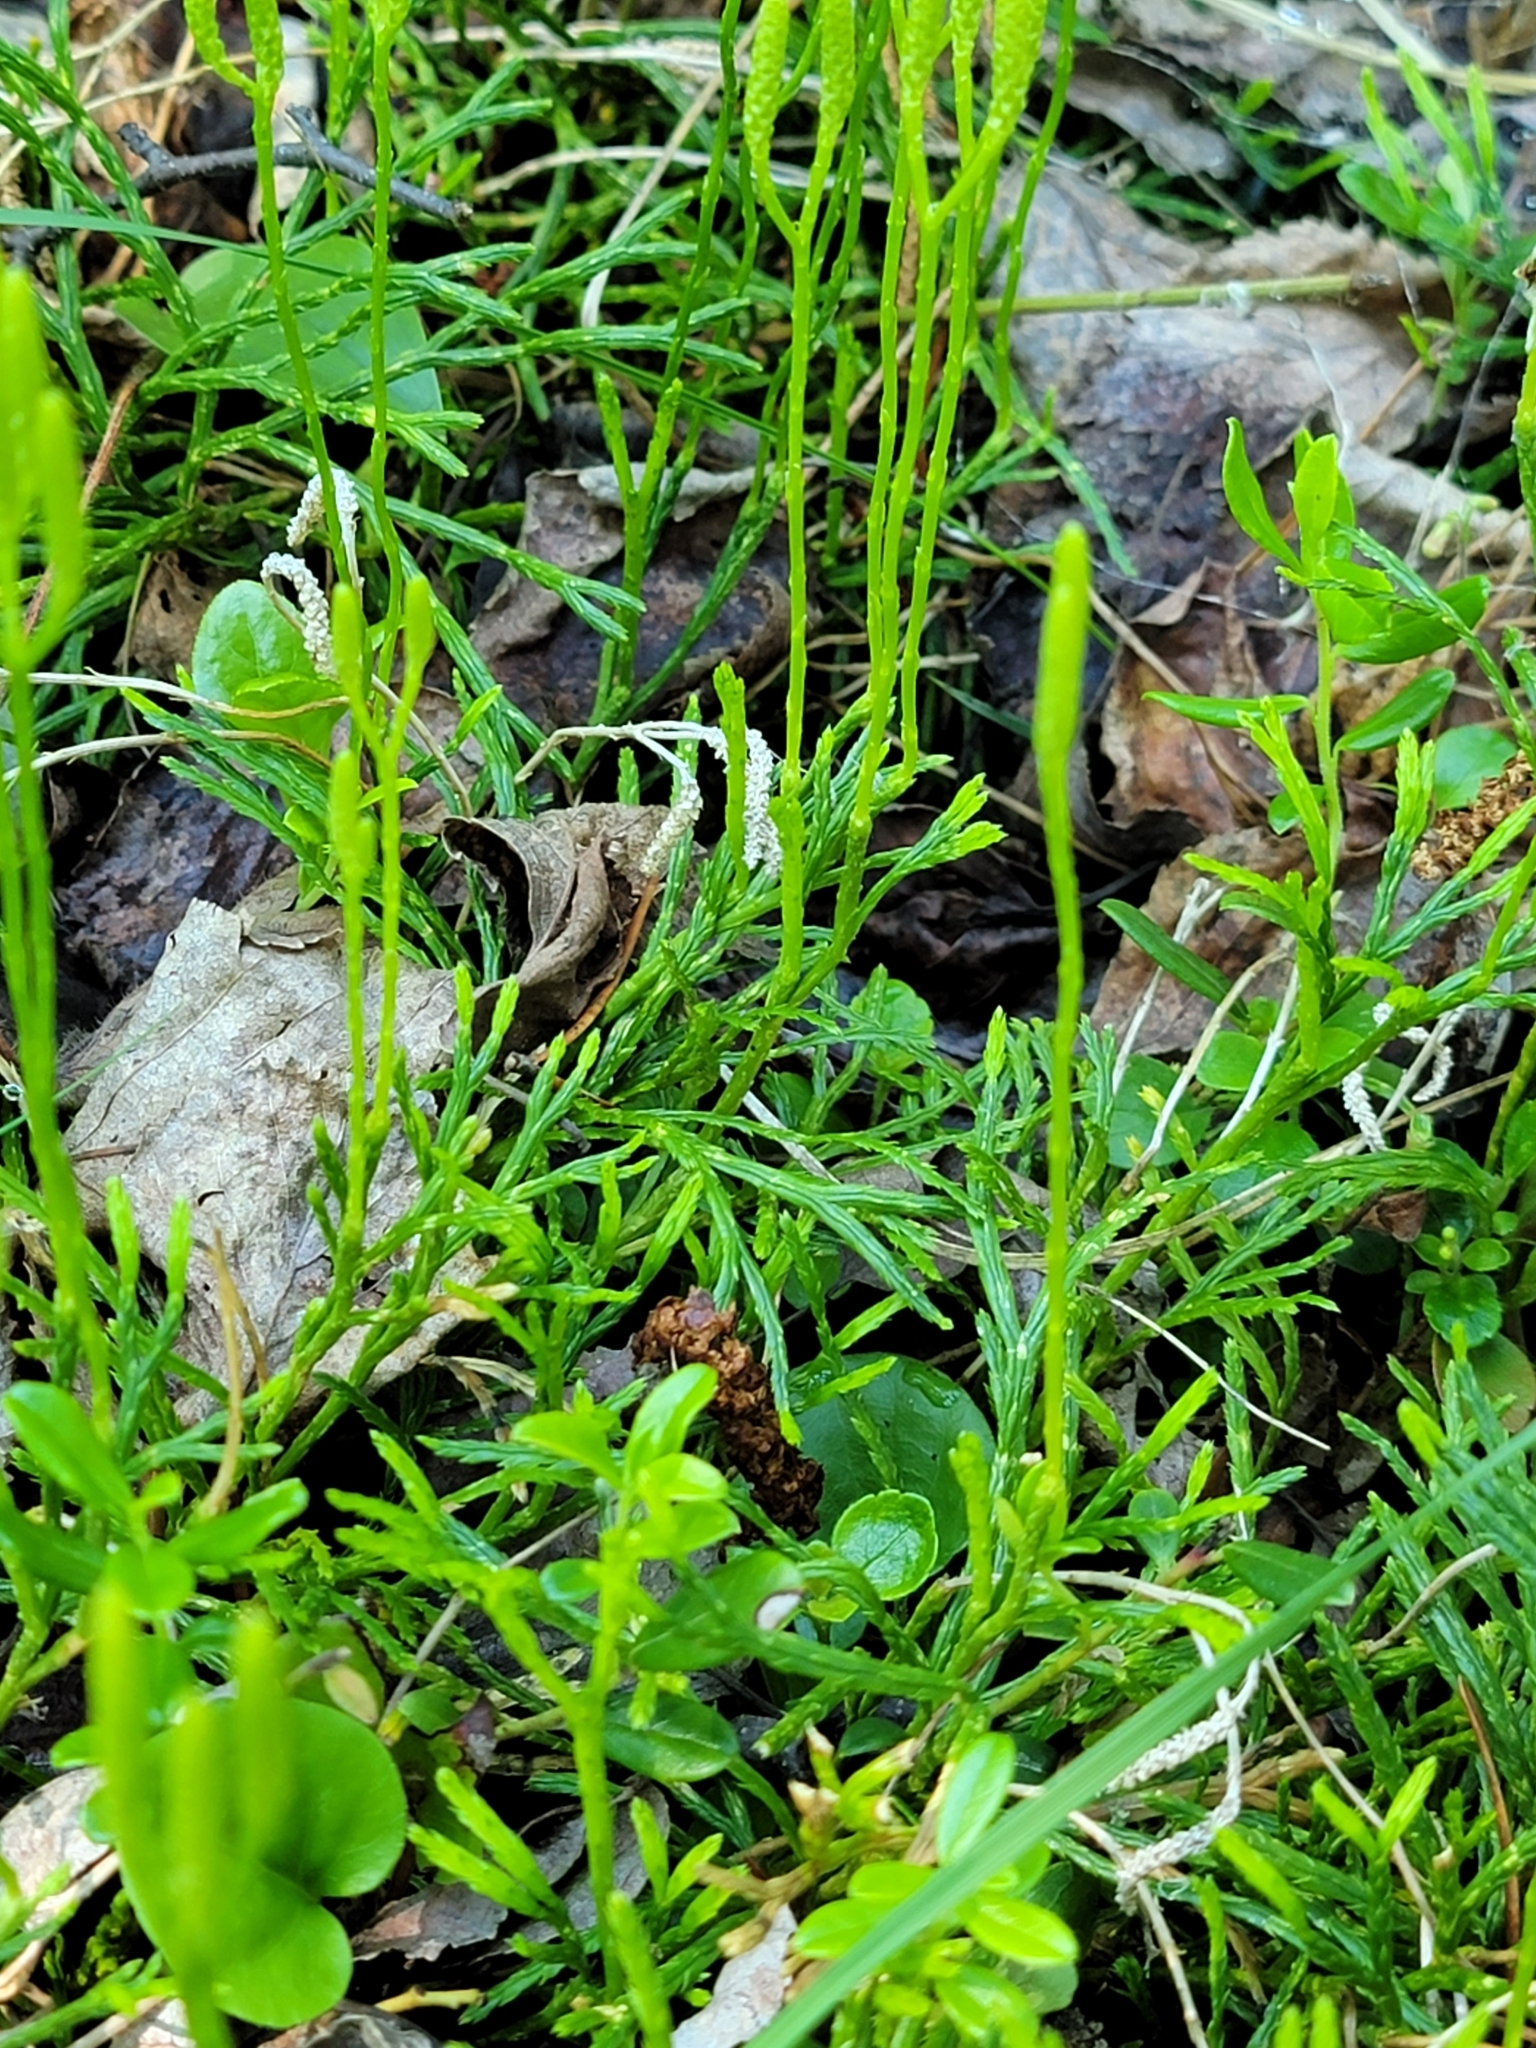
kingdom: Plantae
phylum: Tracheophyta
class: Lycopodiopsida
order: Lycopodiales
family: Lycopodiaceae
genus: Diphasiastrum
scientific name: Diphasiastrum complanatum
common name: Northern running-pine
